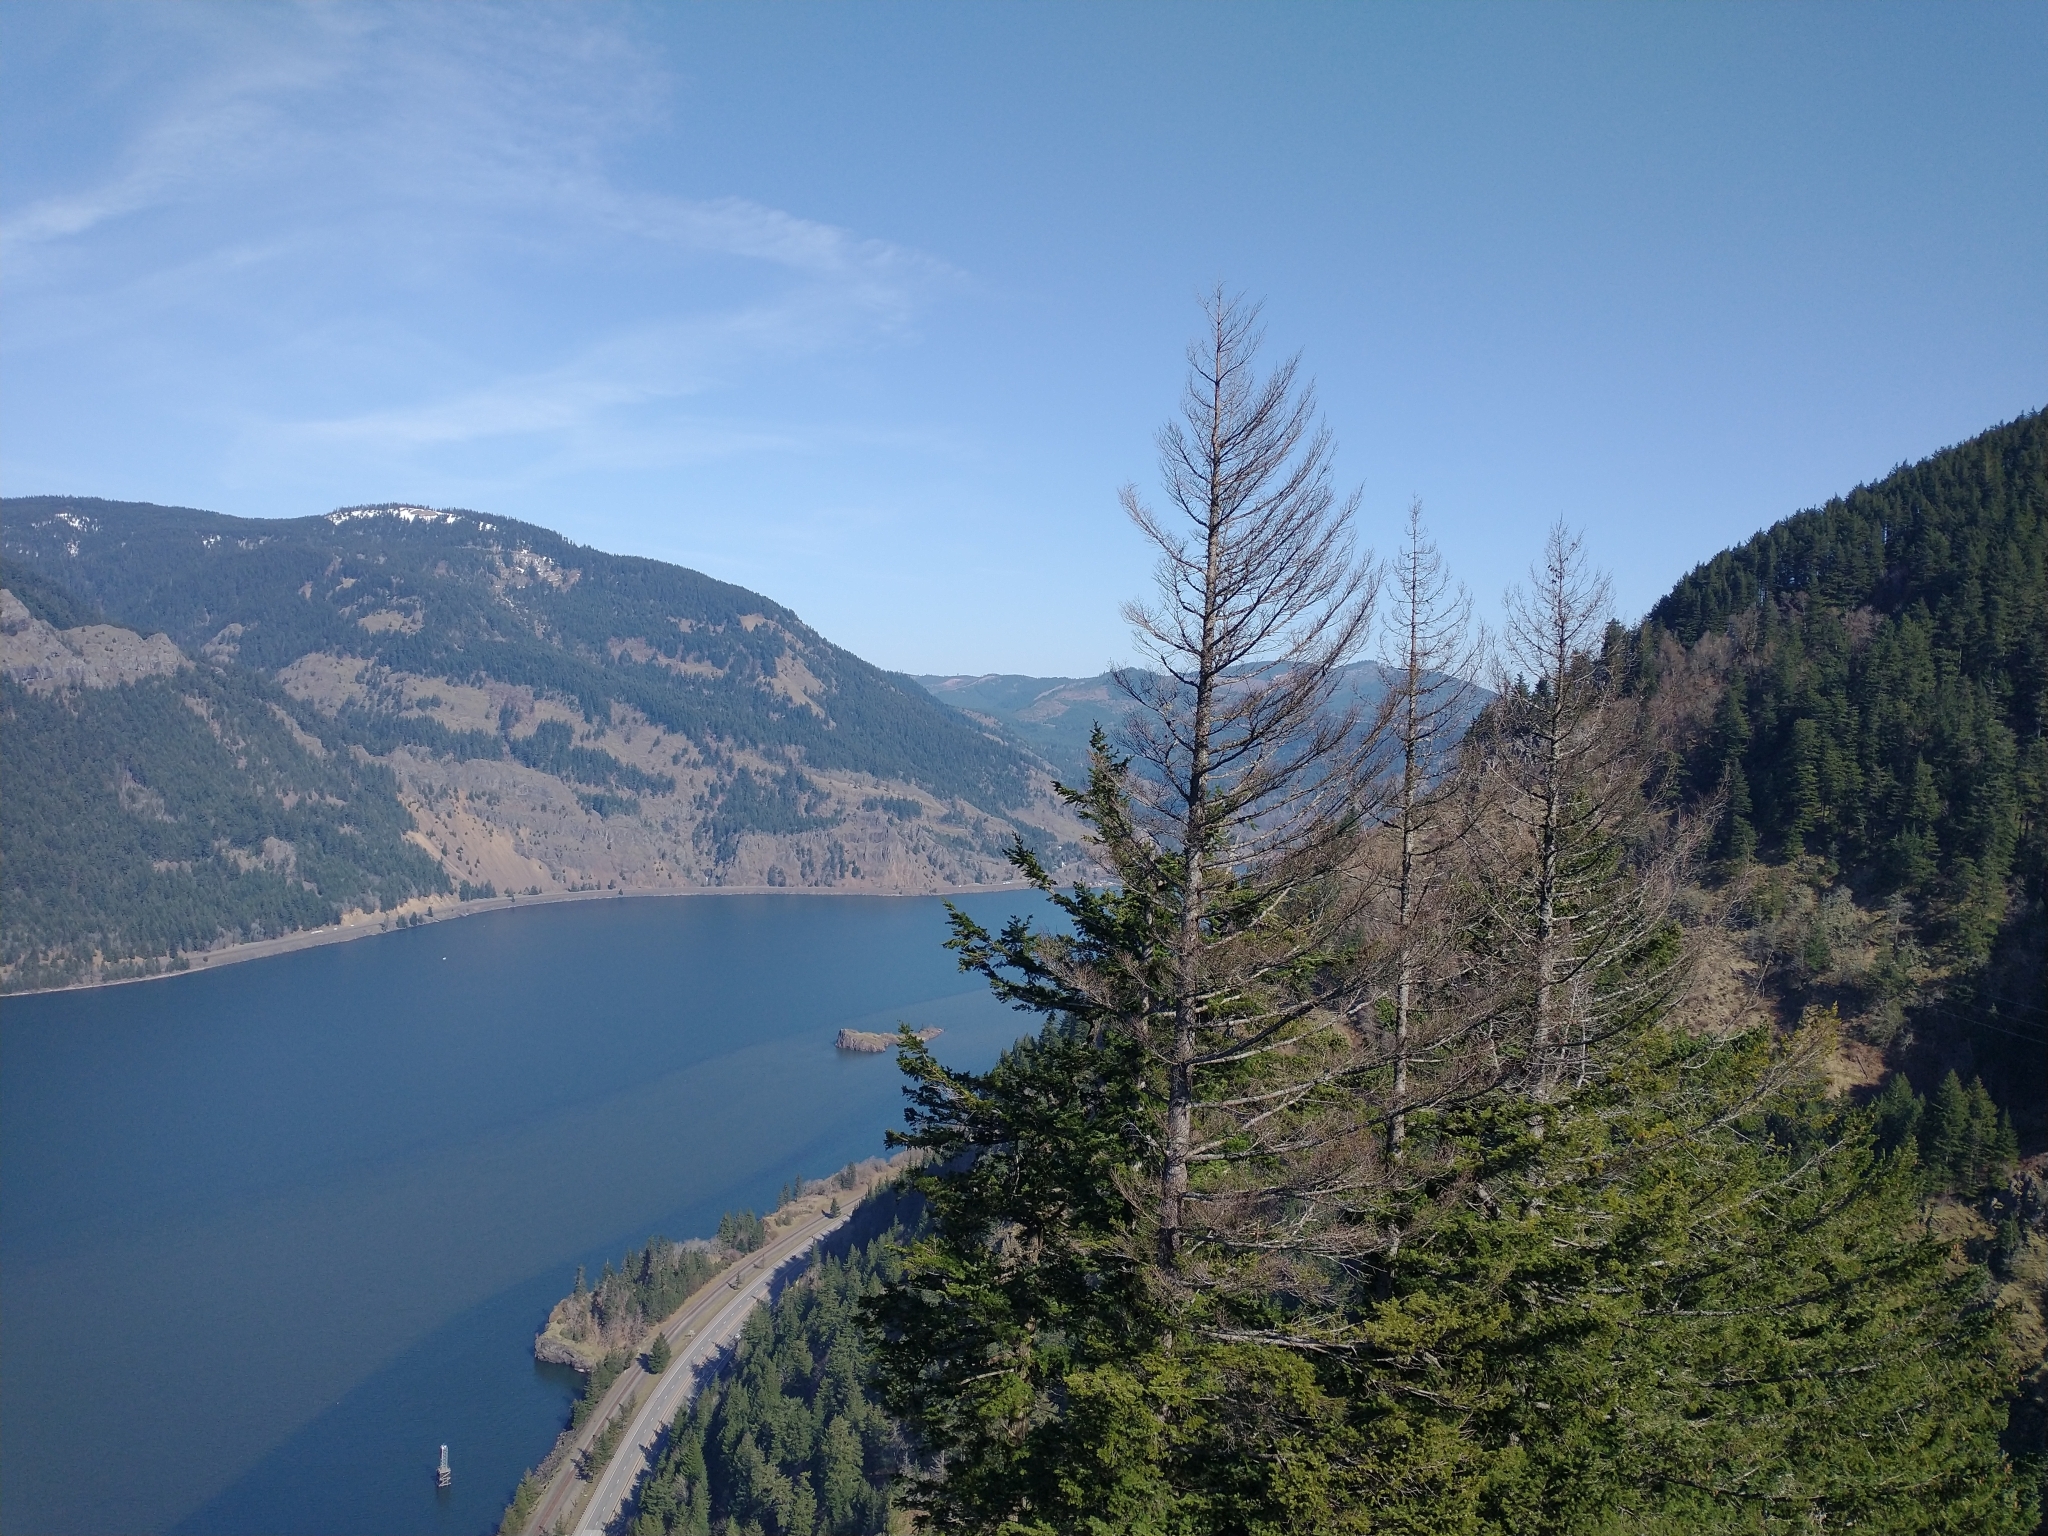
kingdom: Plantae
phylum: Tracheophyta
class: Pinopsida
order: Pinales
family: Pinaceae
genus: Pseudotsuga
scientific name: Pseudotsuga menziesii
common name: Douglas fir
